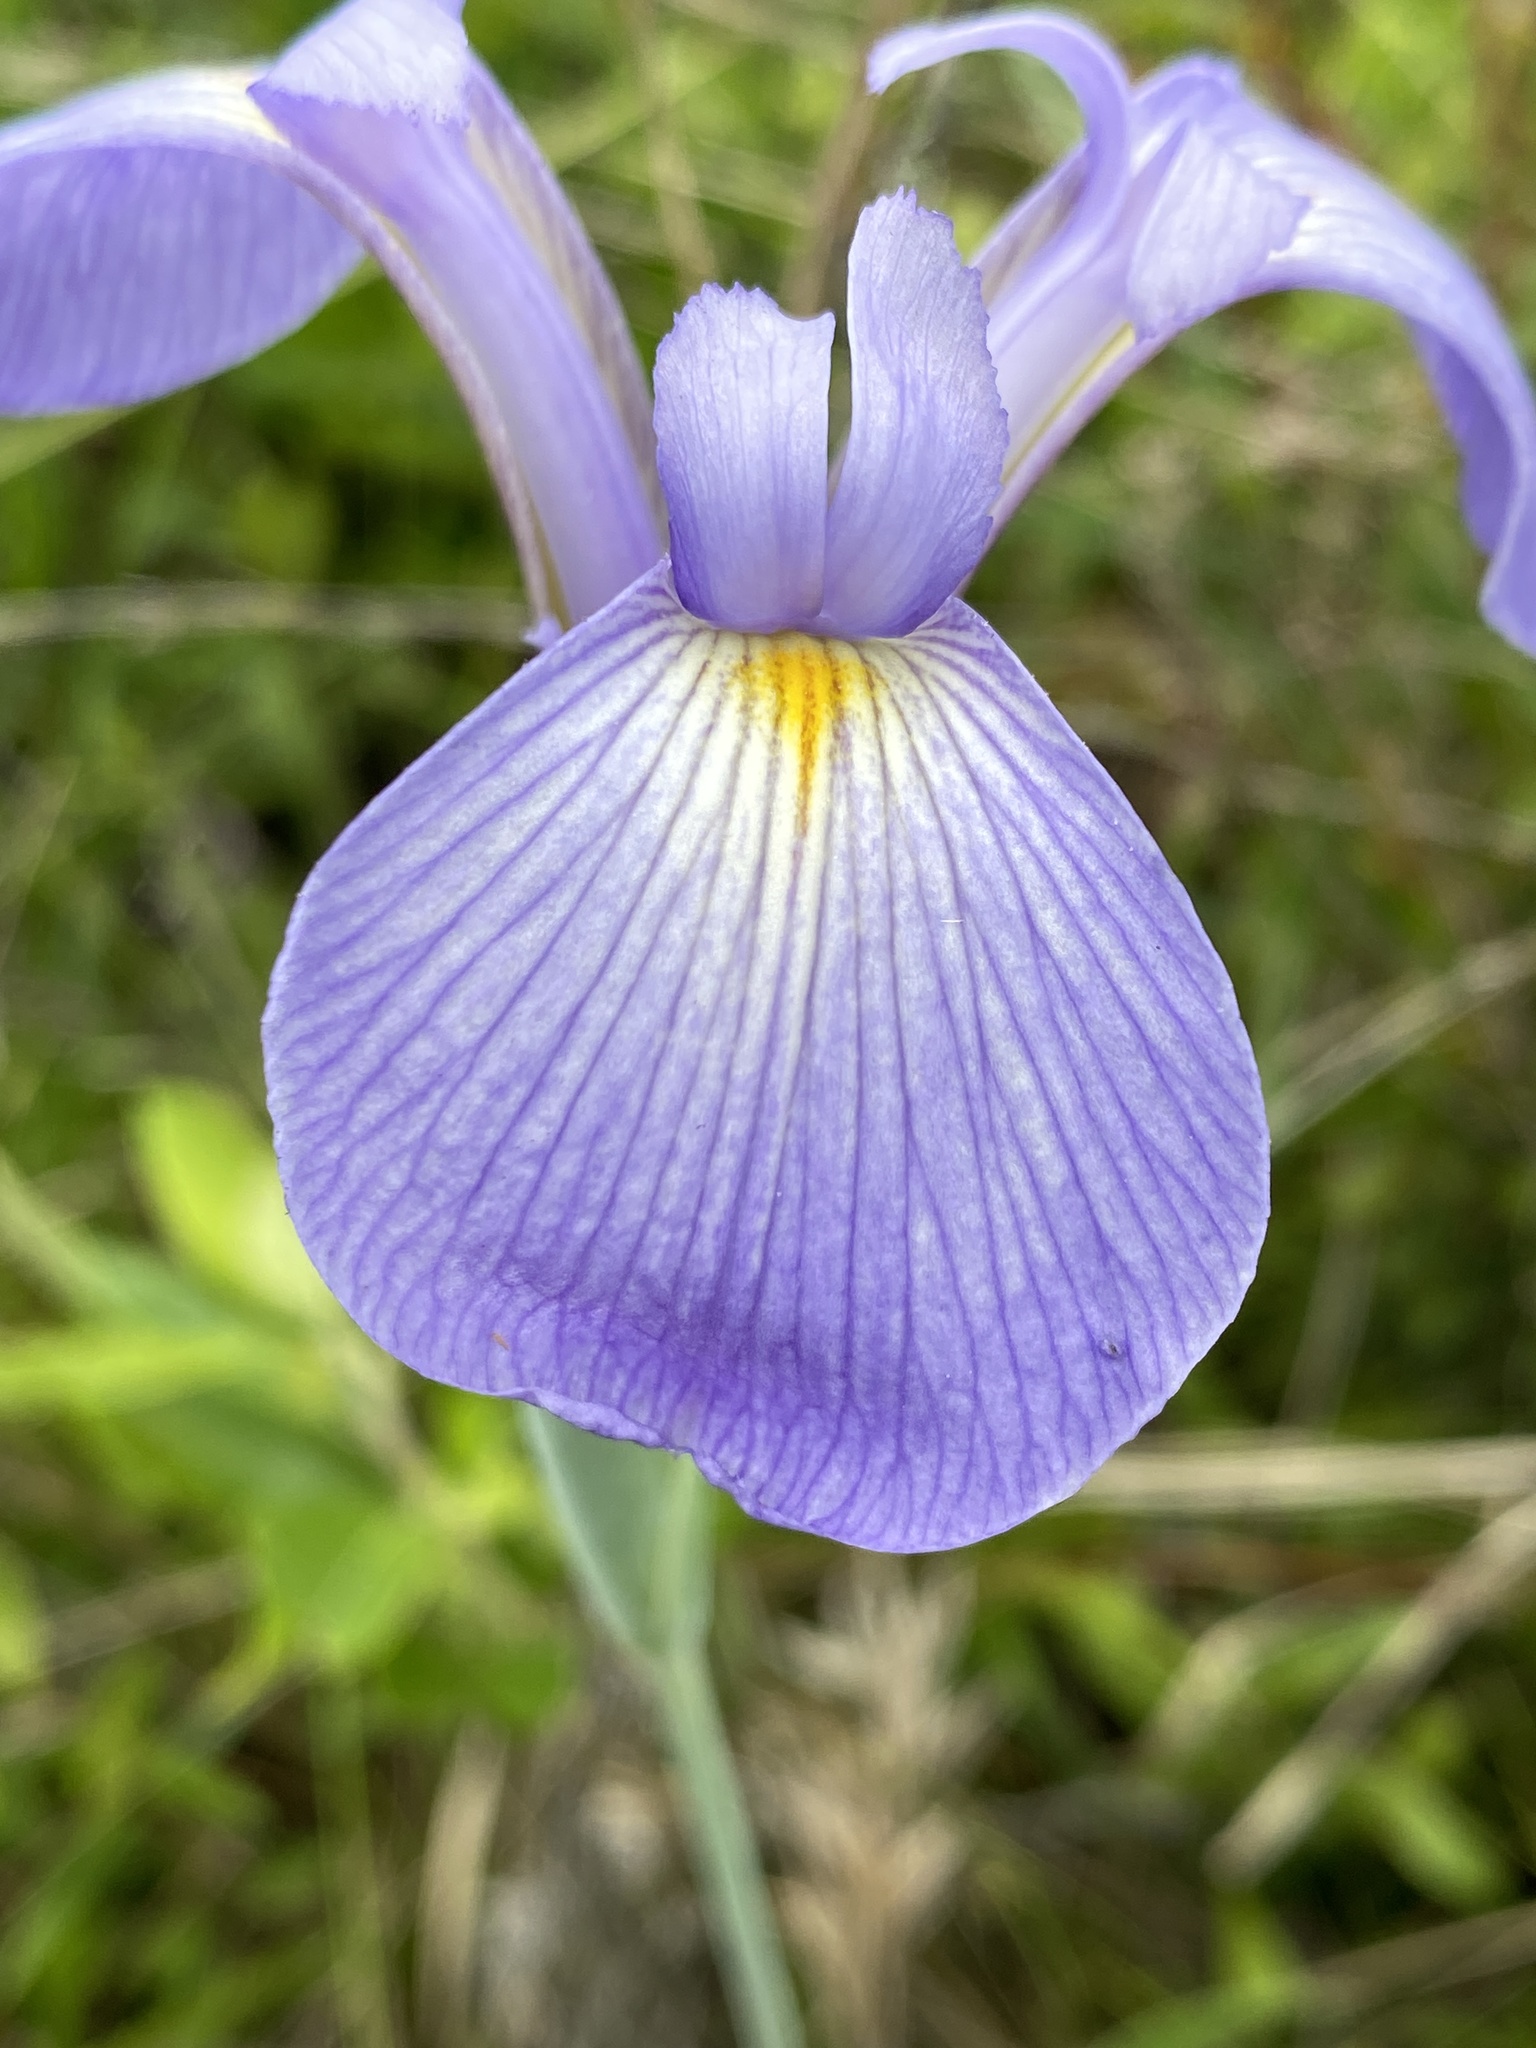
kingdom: Plantae
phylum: Tracheophyta
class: Liliopsida
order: Asparagales
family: Iridaceae
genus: Iris
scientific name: Iris tridentata
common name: Savannah iris
